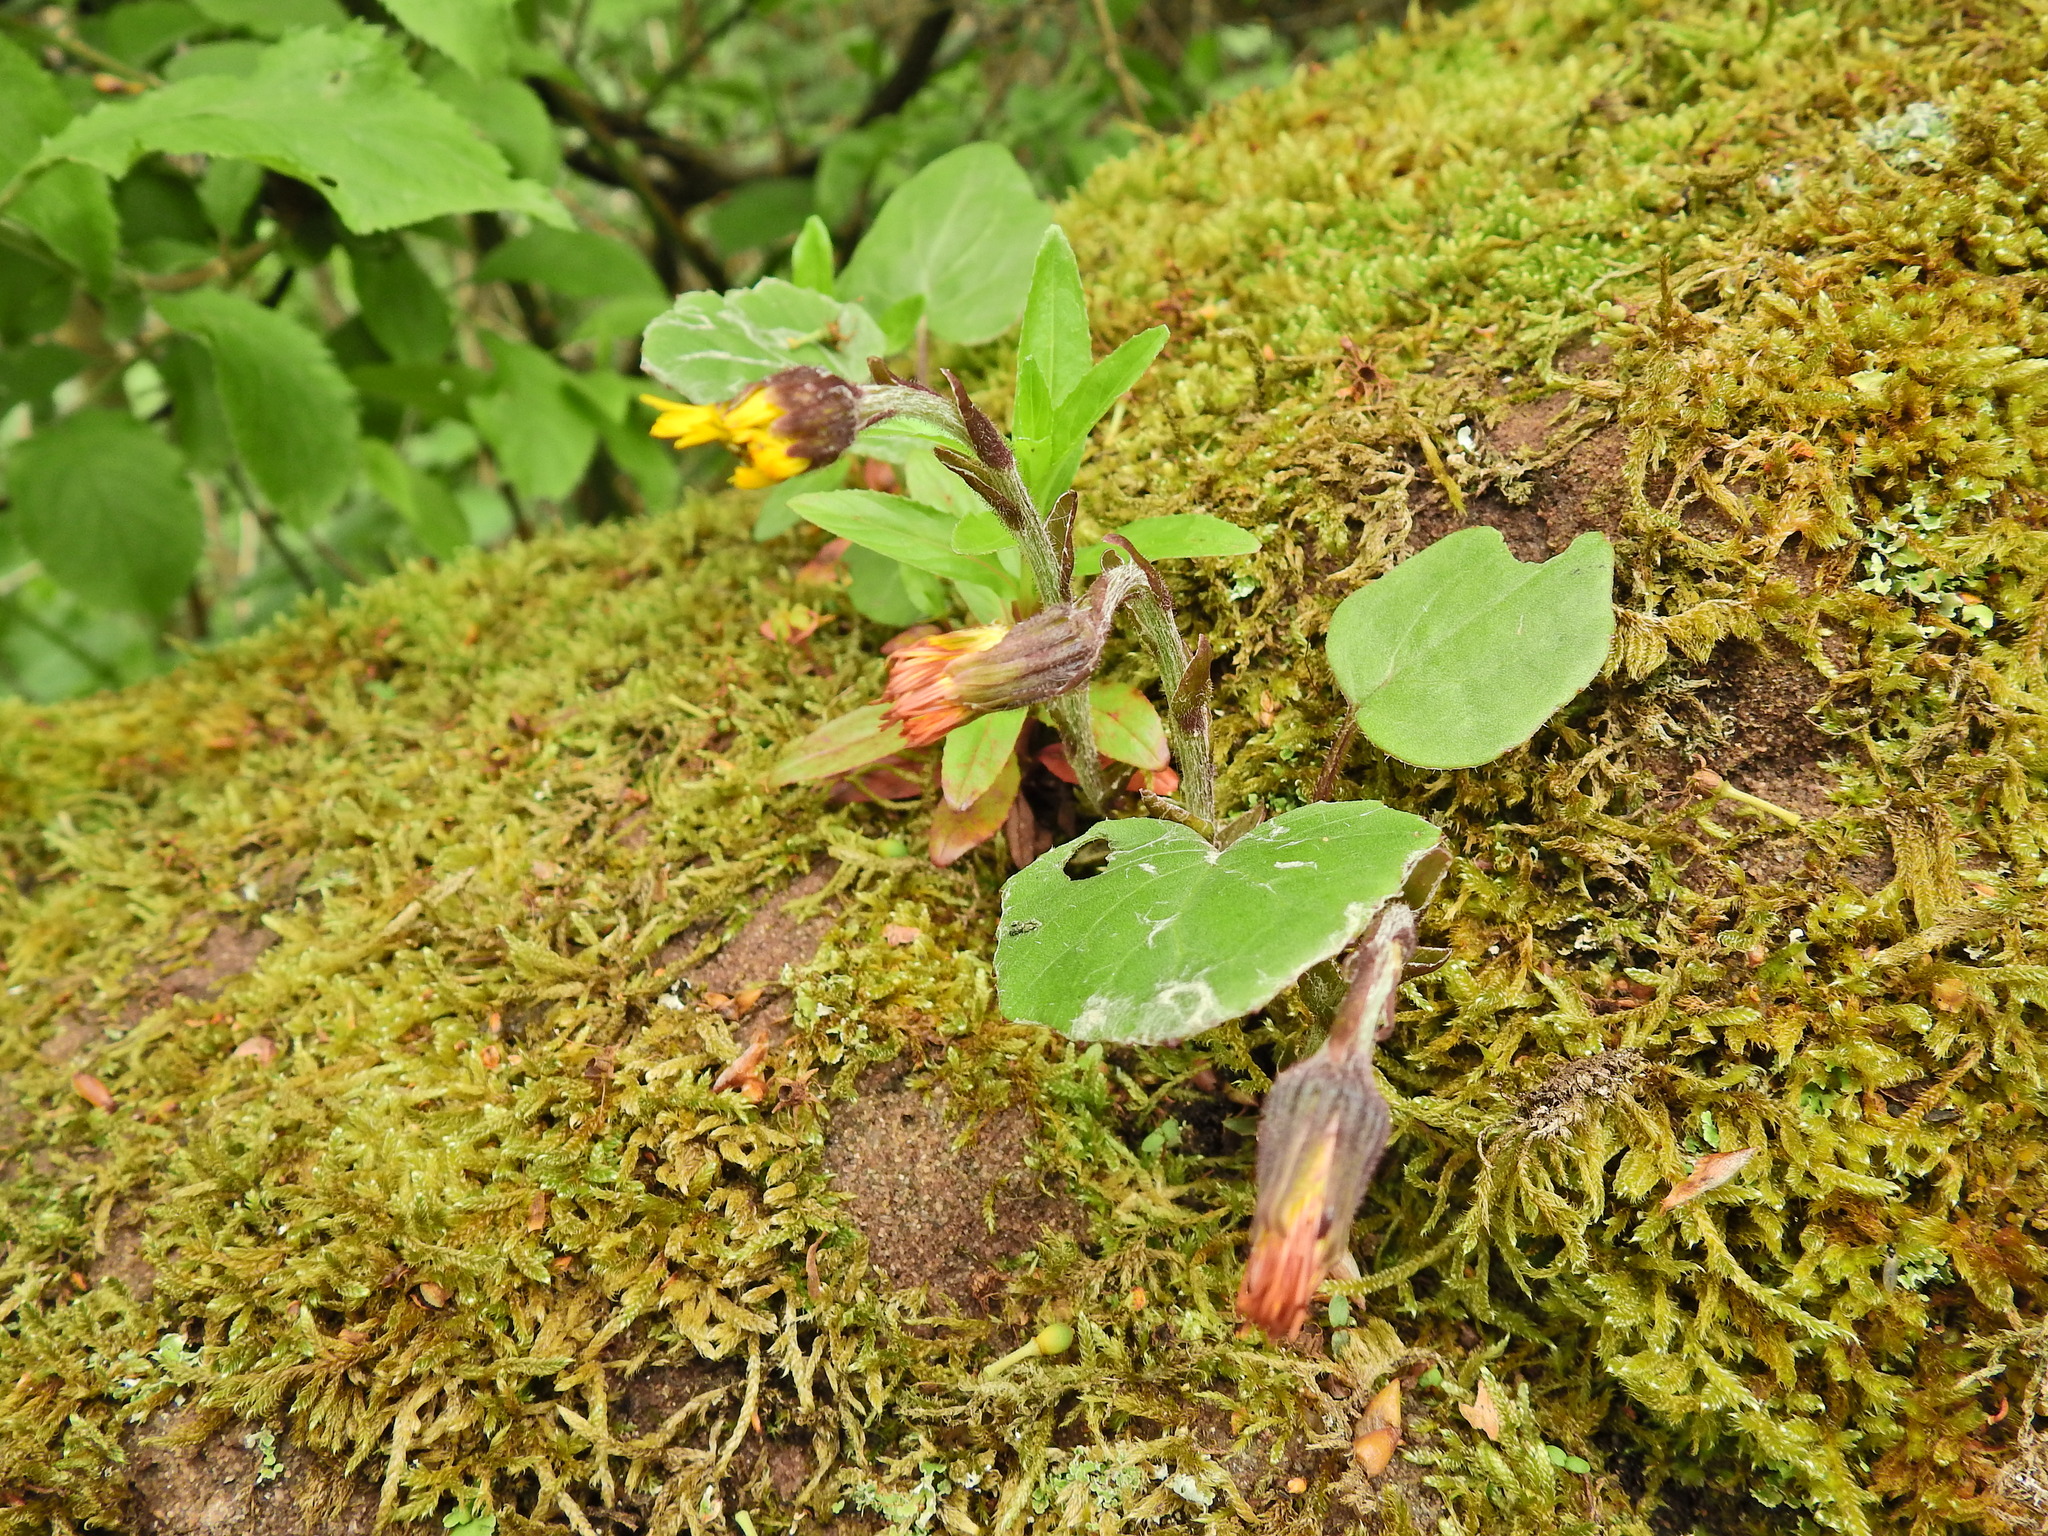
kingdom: Plantae
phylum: Tracheophyta
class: Magnoliopsida
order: Asterales
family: Asteraceae
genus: Tussilago
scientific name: Tussilago farfara
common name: Coltsfoot
